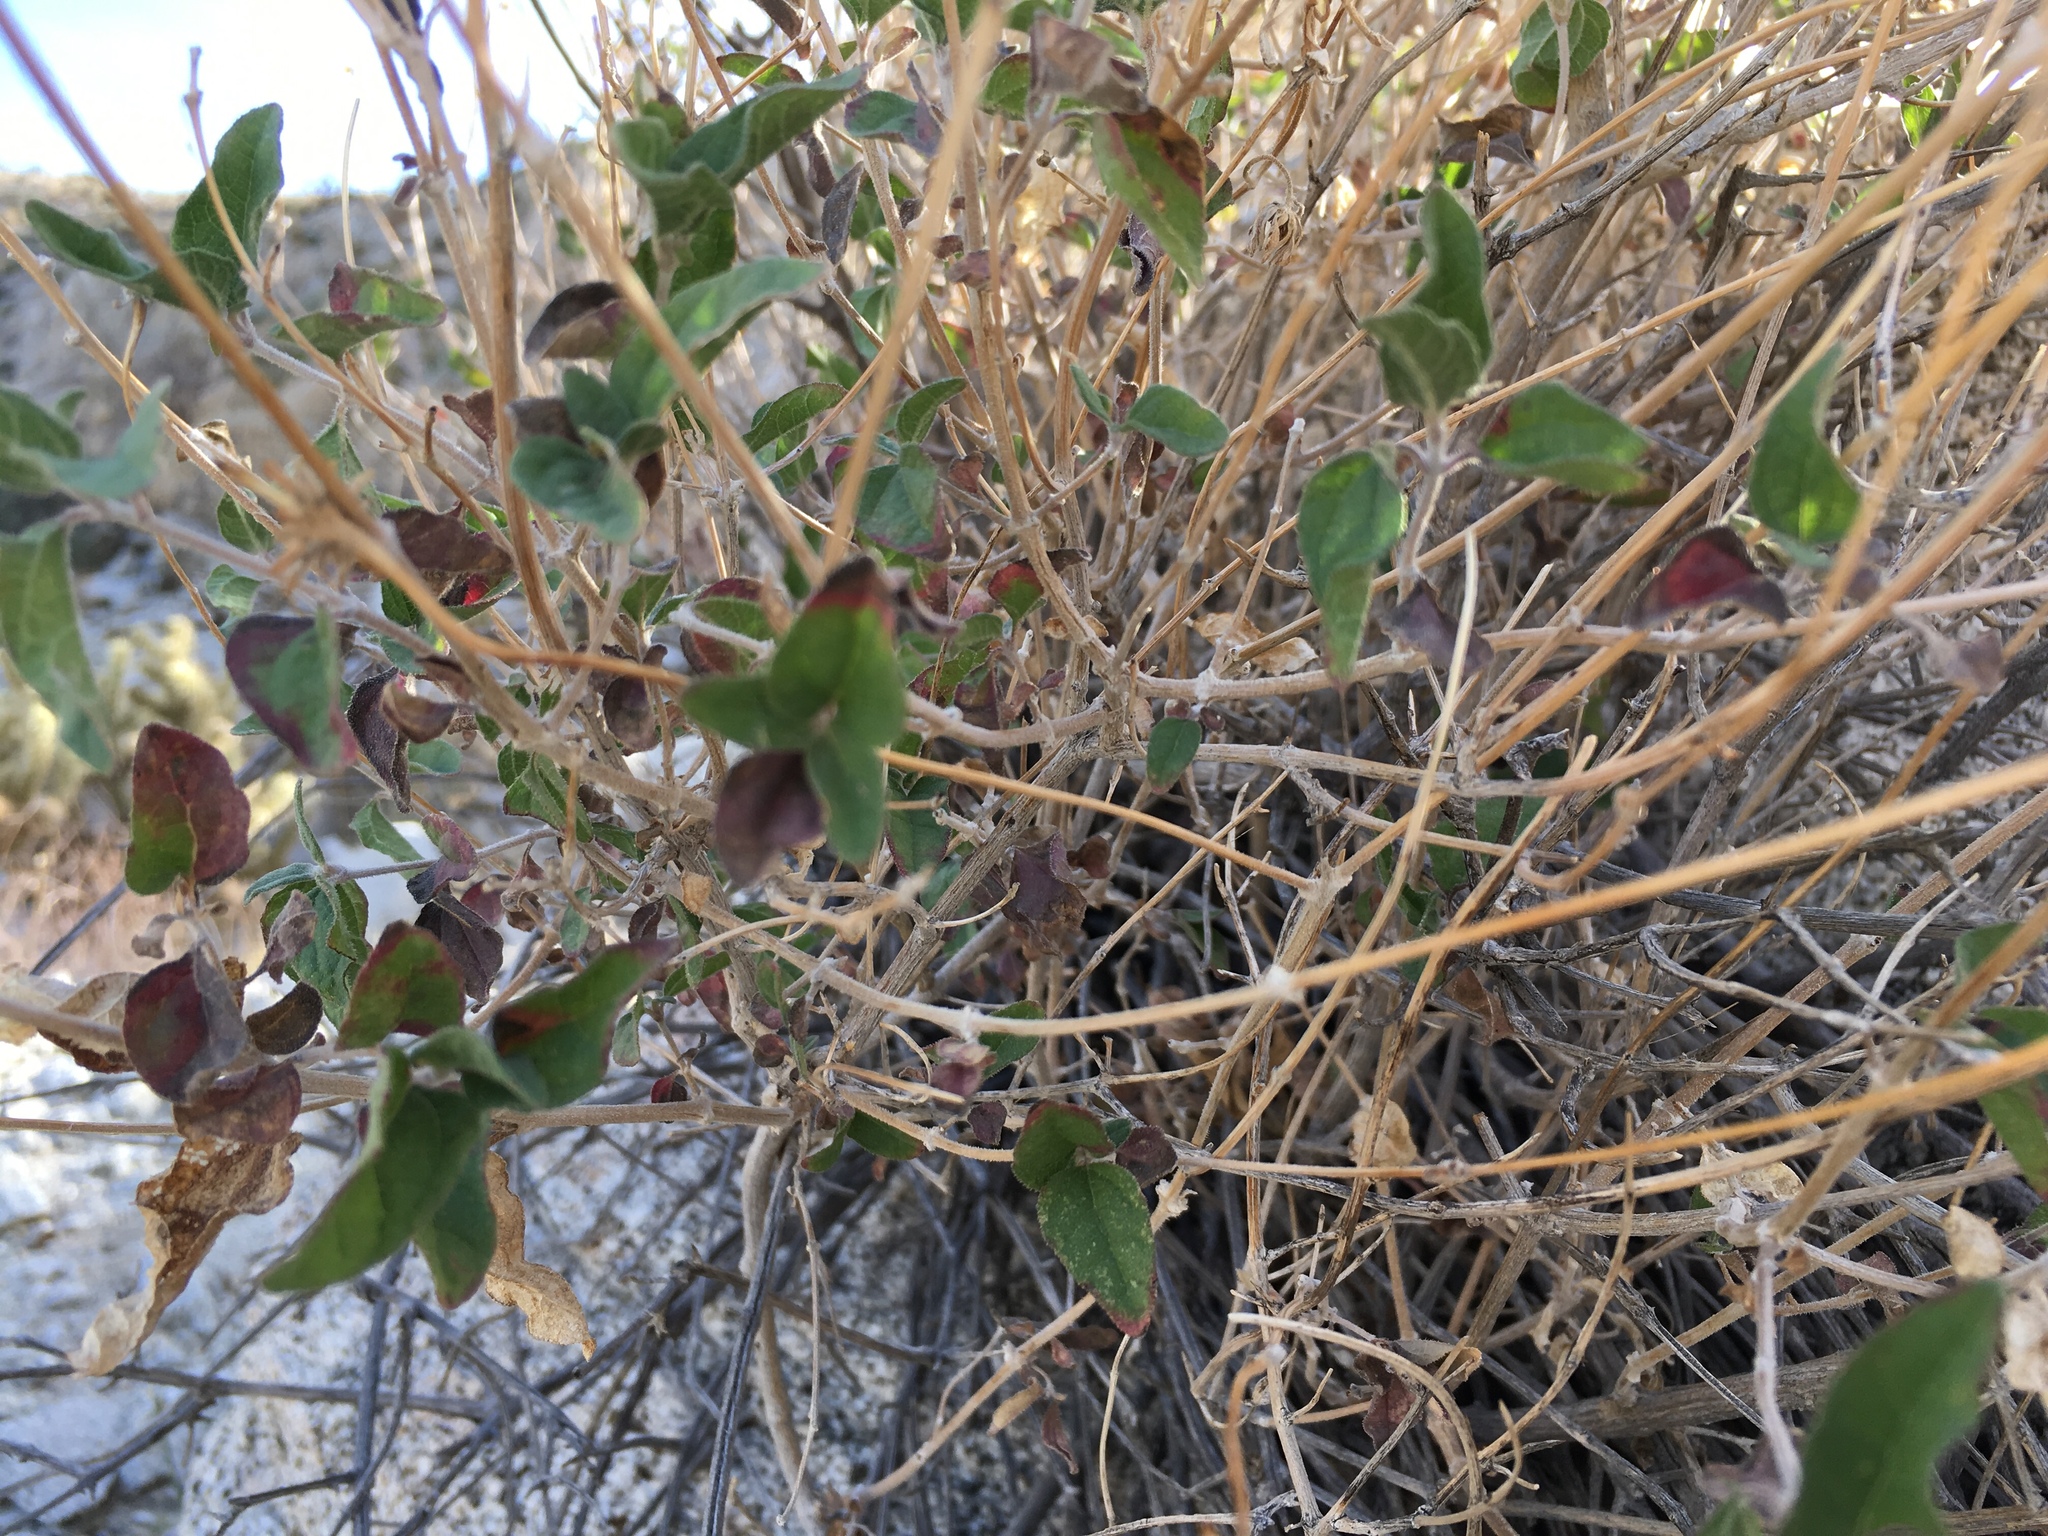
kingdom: Plantae
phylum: Tracheophyta
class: Magnoliopsida
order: Asterales
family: Asteraceae
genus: Bahiopsis
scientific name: Bahiopsis parishii
